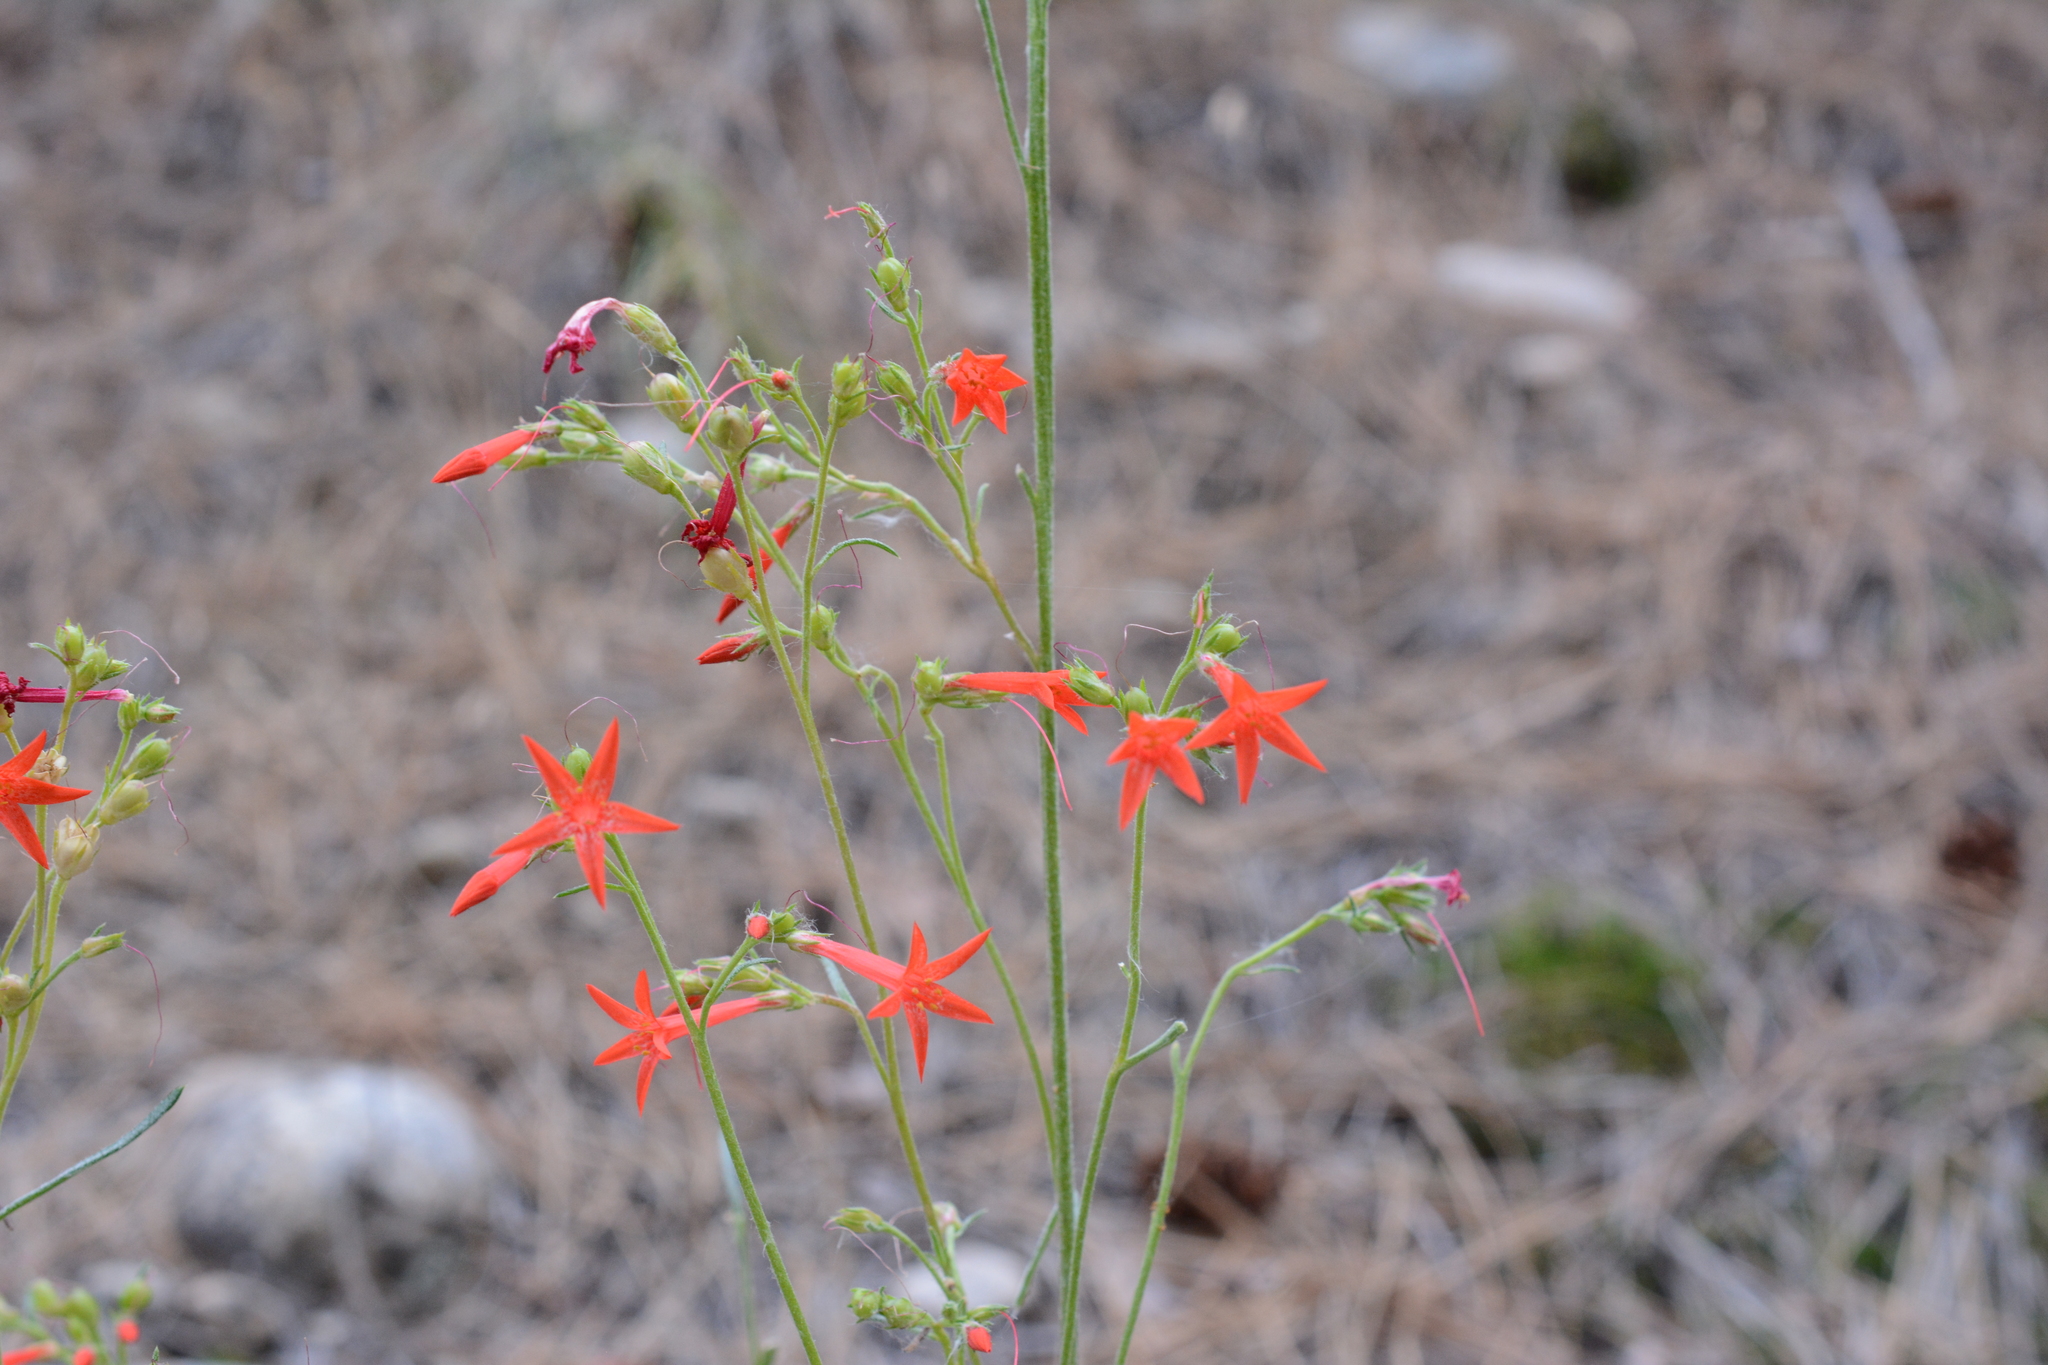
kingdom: Plantae
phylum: Tracheophyta
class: Magnoliopsida
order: Ericales
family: Polemoniaceae
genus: Ipomopsis
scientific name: Ipomopsis aggregata
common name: Scarlet gilia
